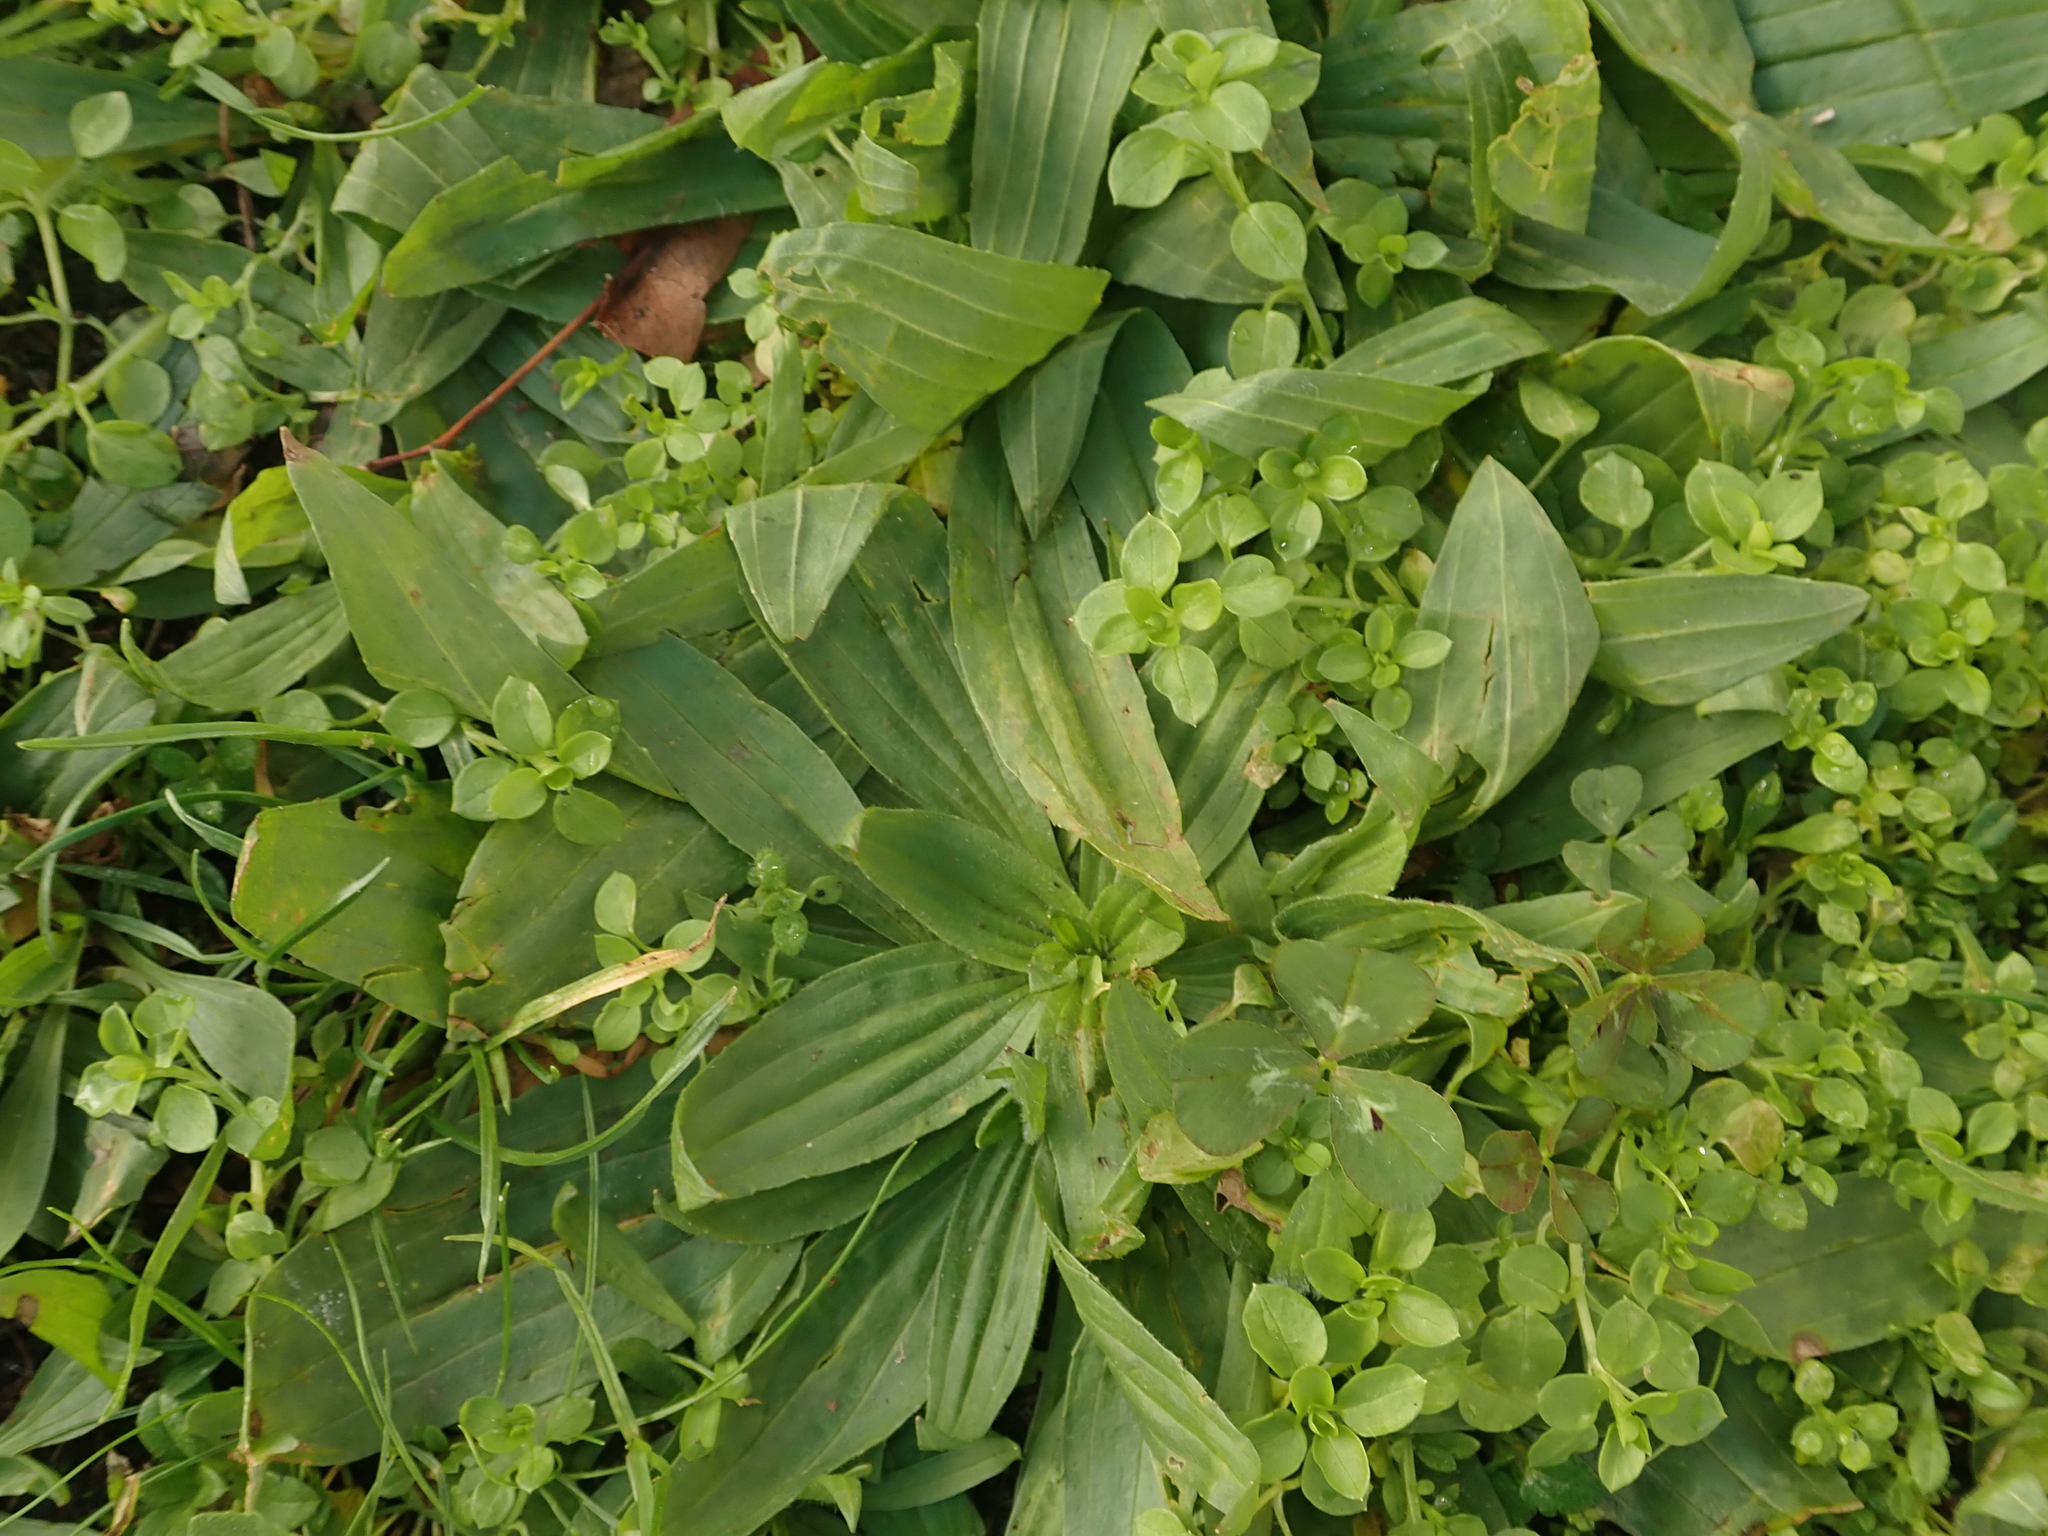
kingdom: Plantae
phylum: Tracheophyta
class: Magnoliopsida
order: Lamiales
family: Plantaginaceae
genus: Plantago
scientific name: Plantago lanceolata
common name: Ribwort plantain
